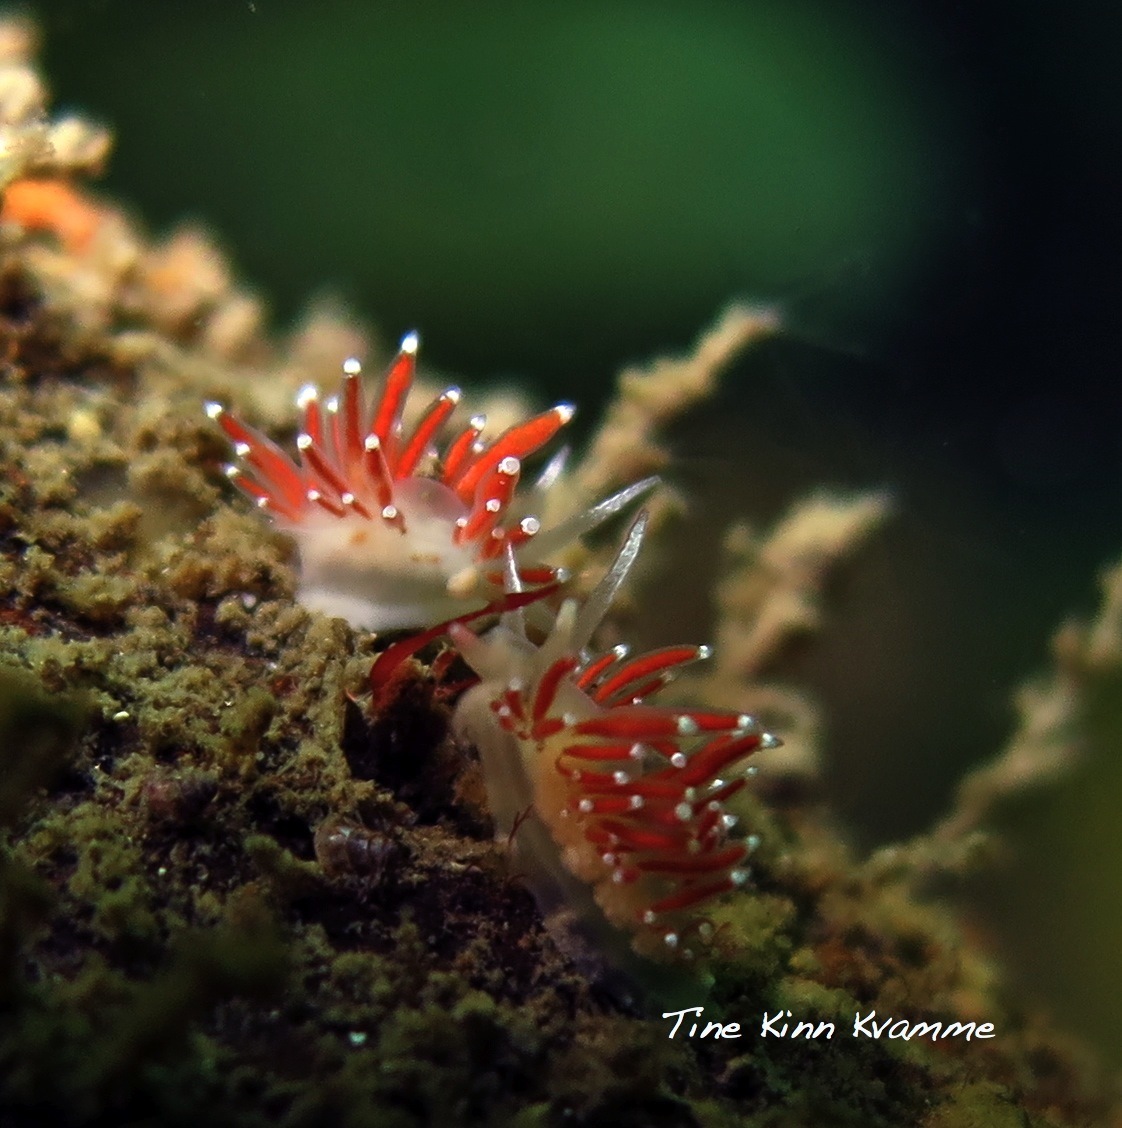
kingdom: Animalia
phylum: Mollusca
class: Gastropoda
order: Nudibranchia
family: Coryphellidae
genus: Coryphella
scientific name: Coryphella gracilis
